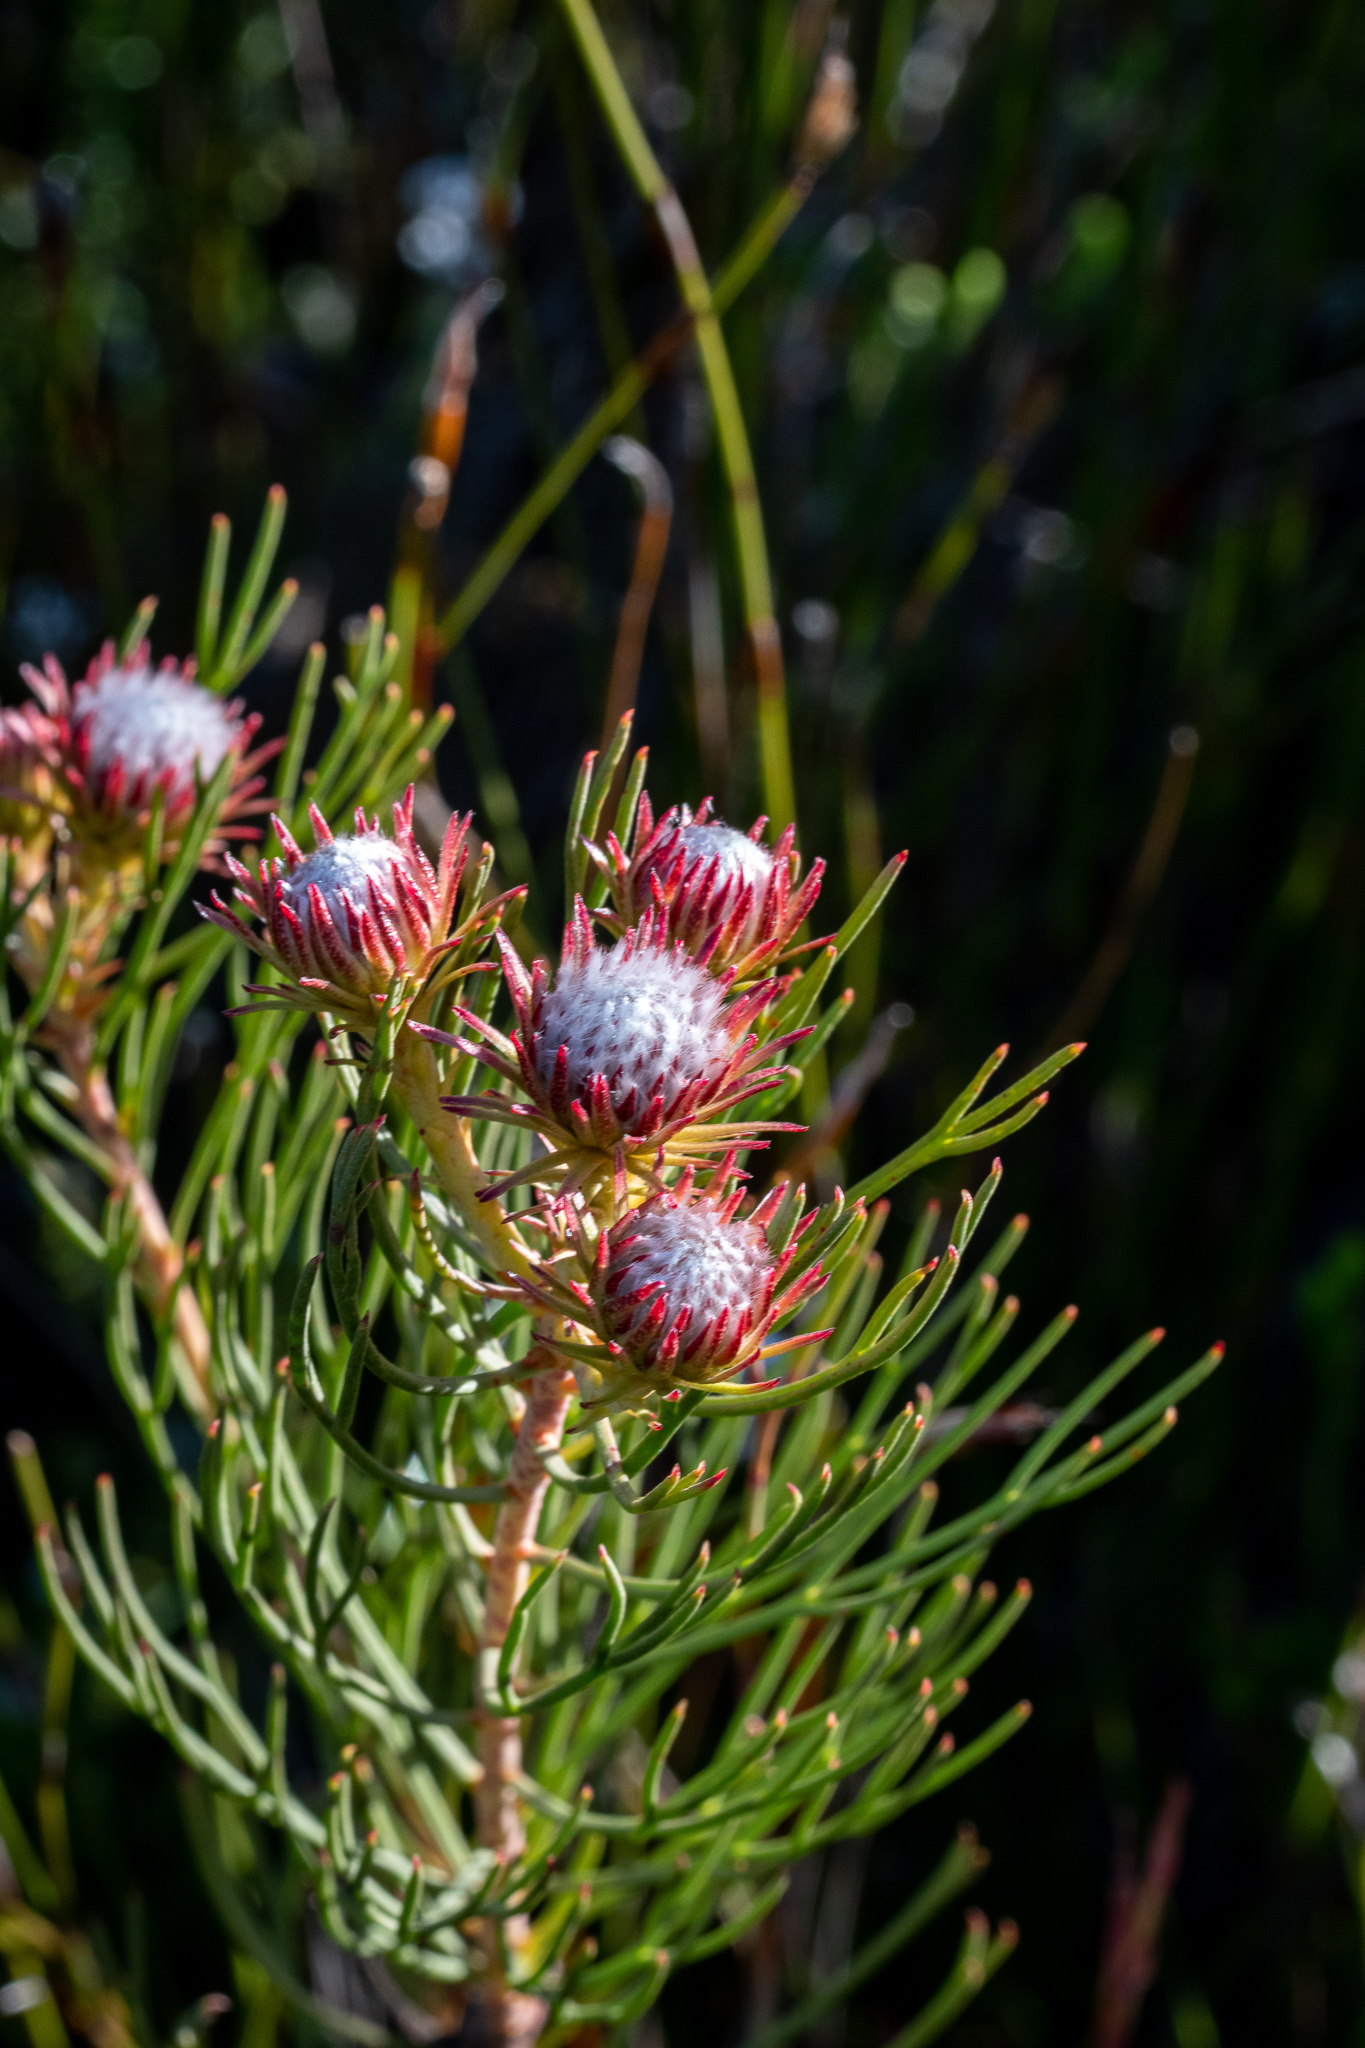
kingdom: Plantae
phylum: Tracheophyta
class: Magnoliopsida
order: Proteales
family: Proteaceae
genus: Serruria
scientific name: Serruria phylicoides
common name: Bearded spiderhead
